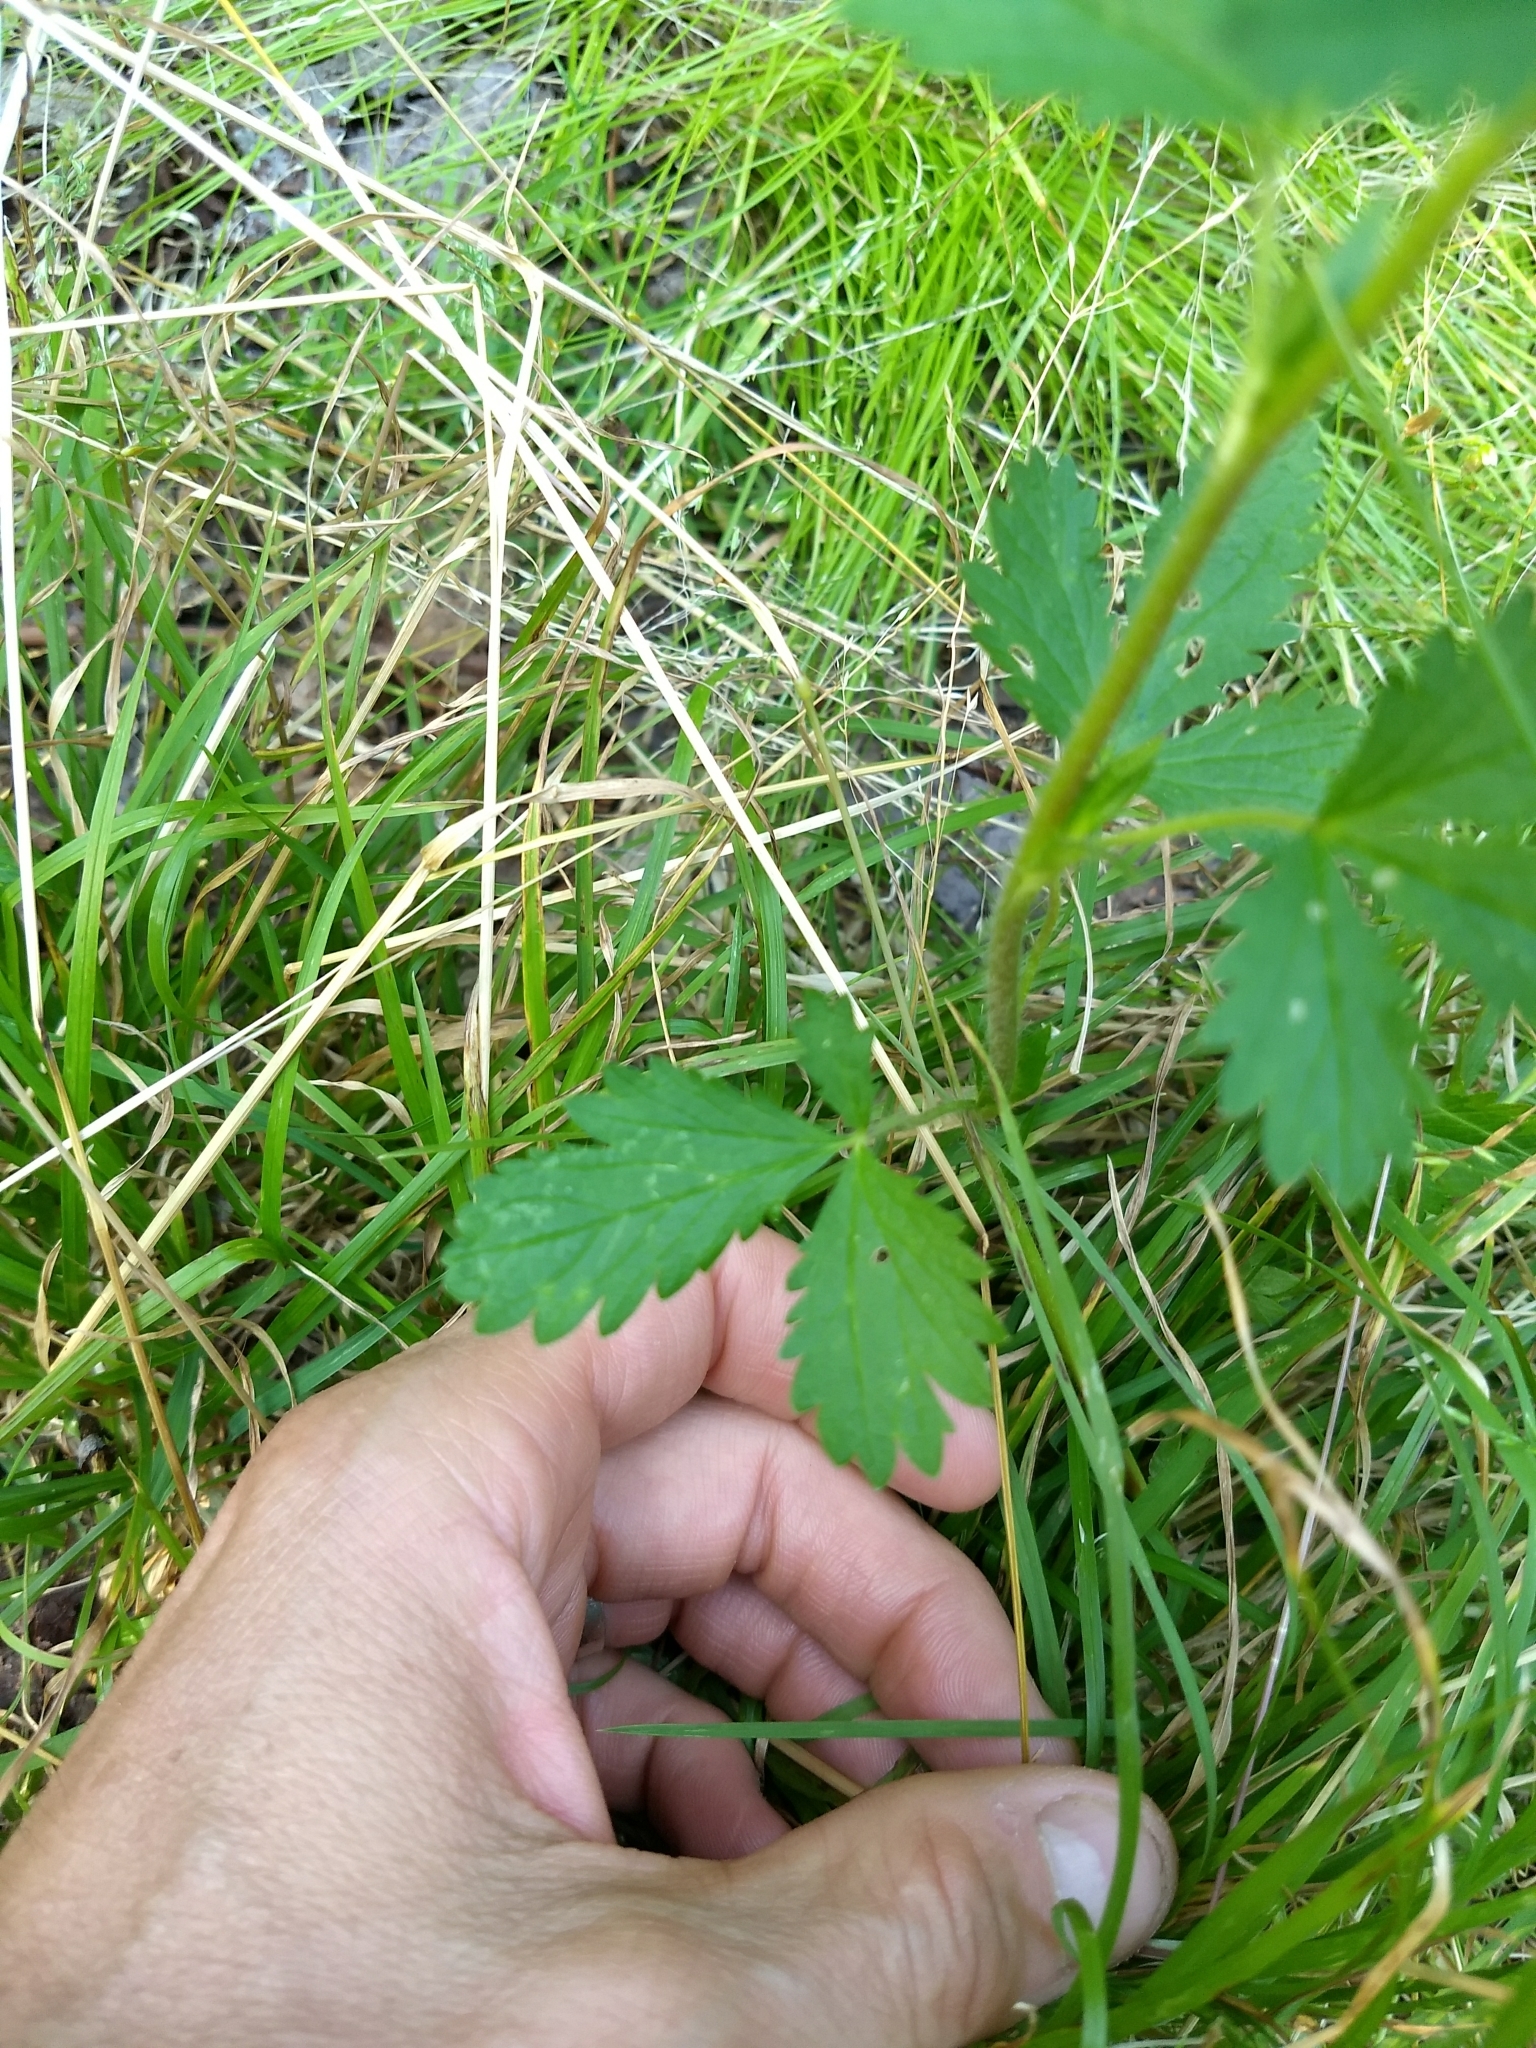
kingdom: Plantae
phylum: Tracheophyta
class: Magnoliopsida
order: Rosales
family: Rosaceae
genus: Potentilla
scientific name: Potentilla norvegica
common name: Ternate-leaved cinquefoil
